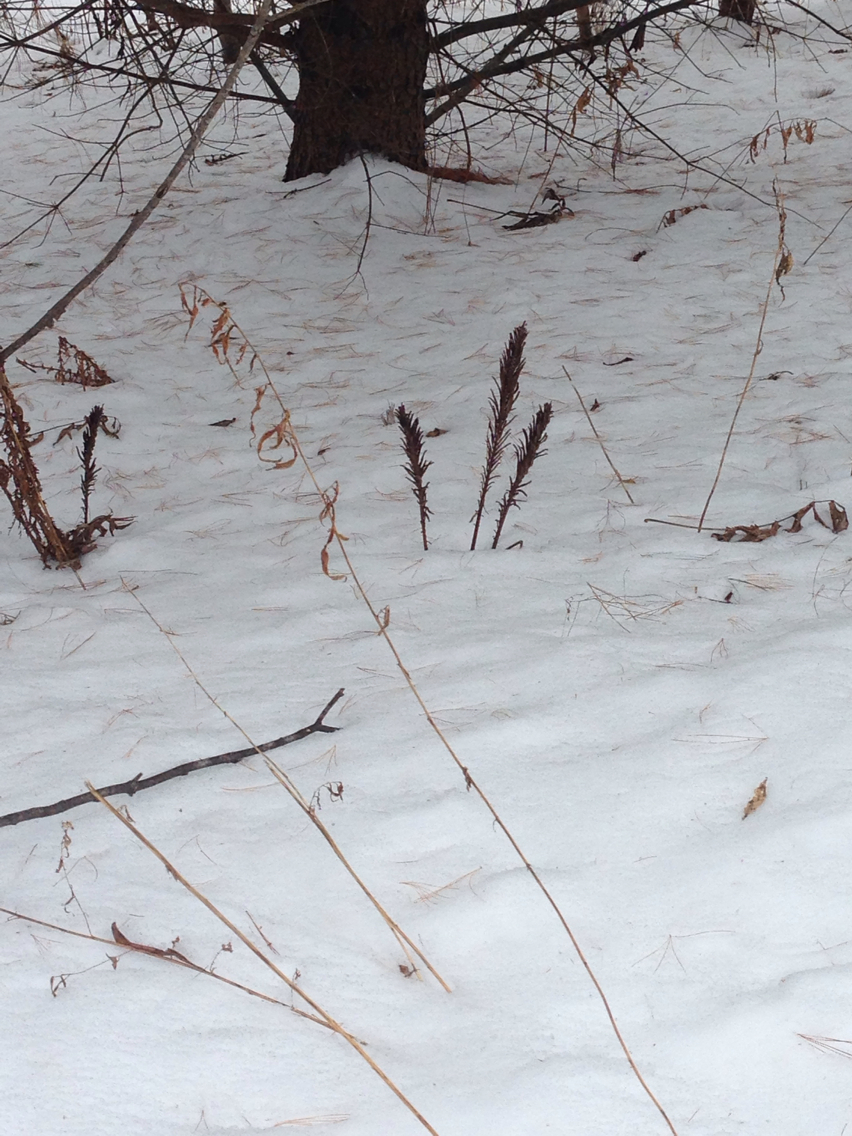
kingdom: Plantae
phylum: Tracheophyta
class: Polypodiopsida
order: Polypodiales
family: Onocleaceae
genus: Matteuccia
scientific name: Matteuccia struthiopteris
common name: Ostrich fern
